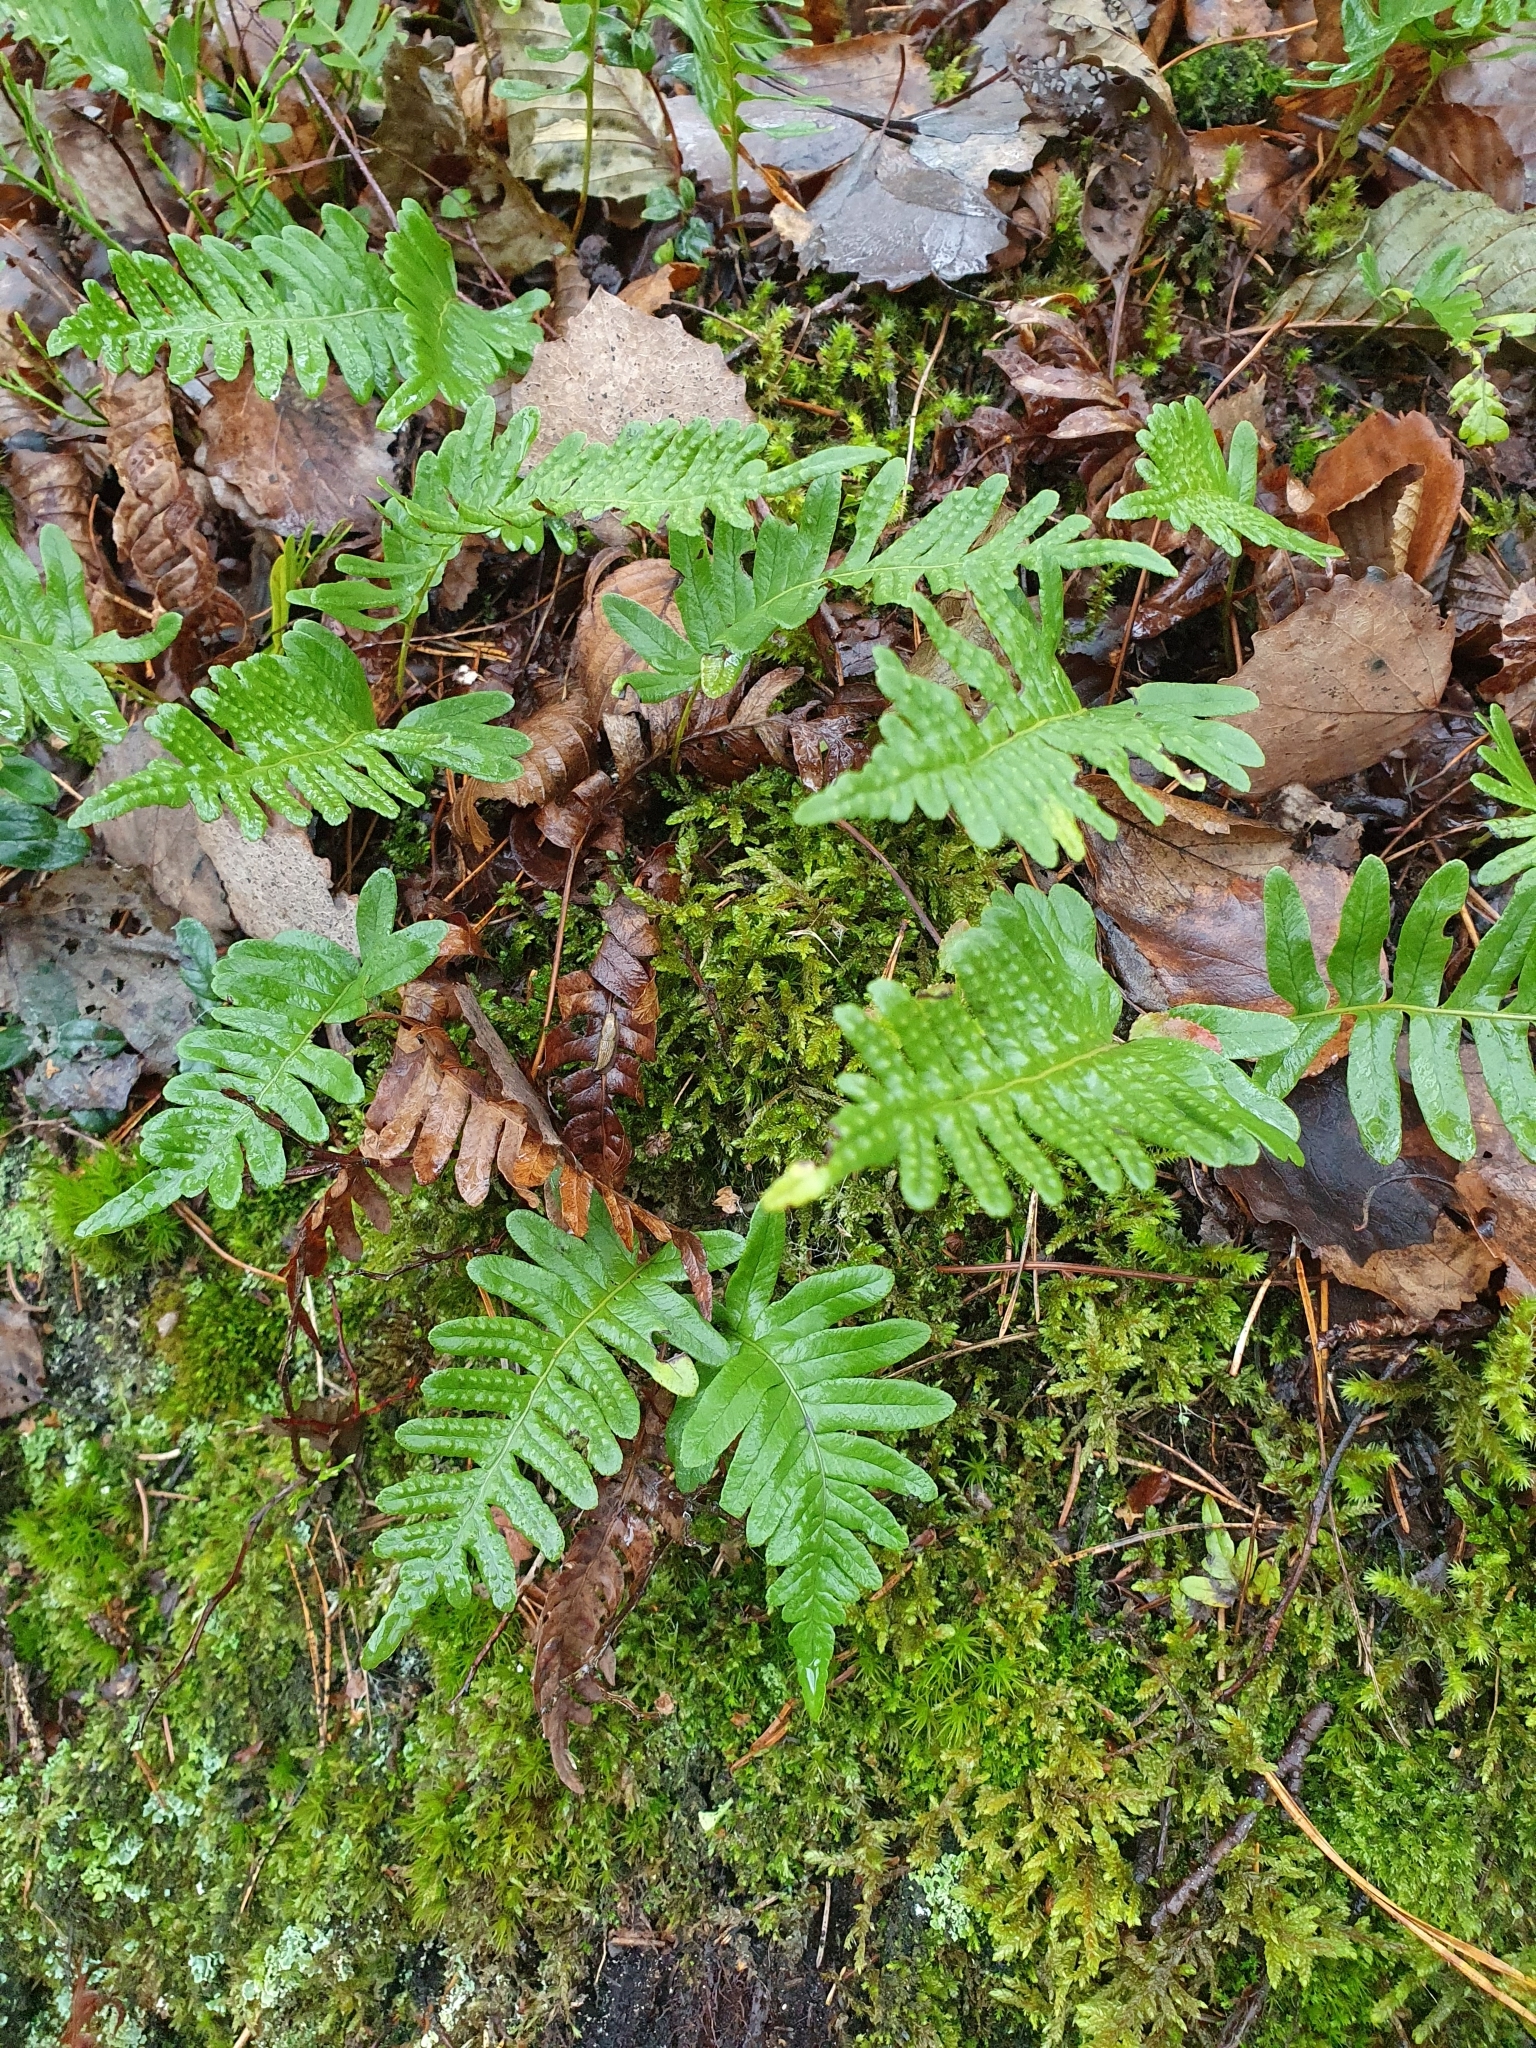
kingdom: Plantae
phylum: Tracheophyta
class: Polypodiopsida
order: Polypodiales
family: Polypodiaceae
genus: Polypodium
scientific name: Polypodium vulgare
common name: Common polypody
